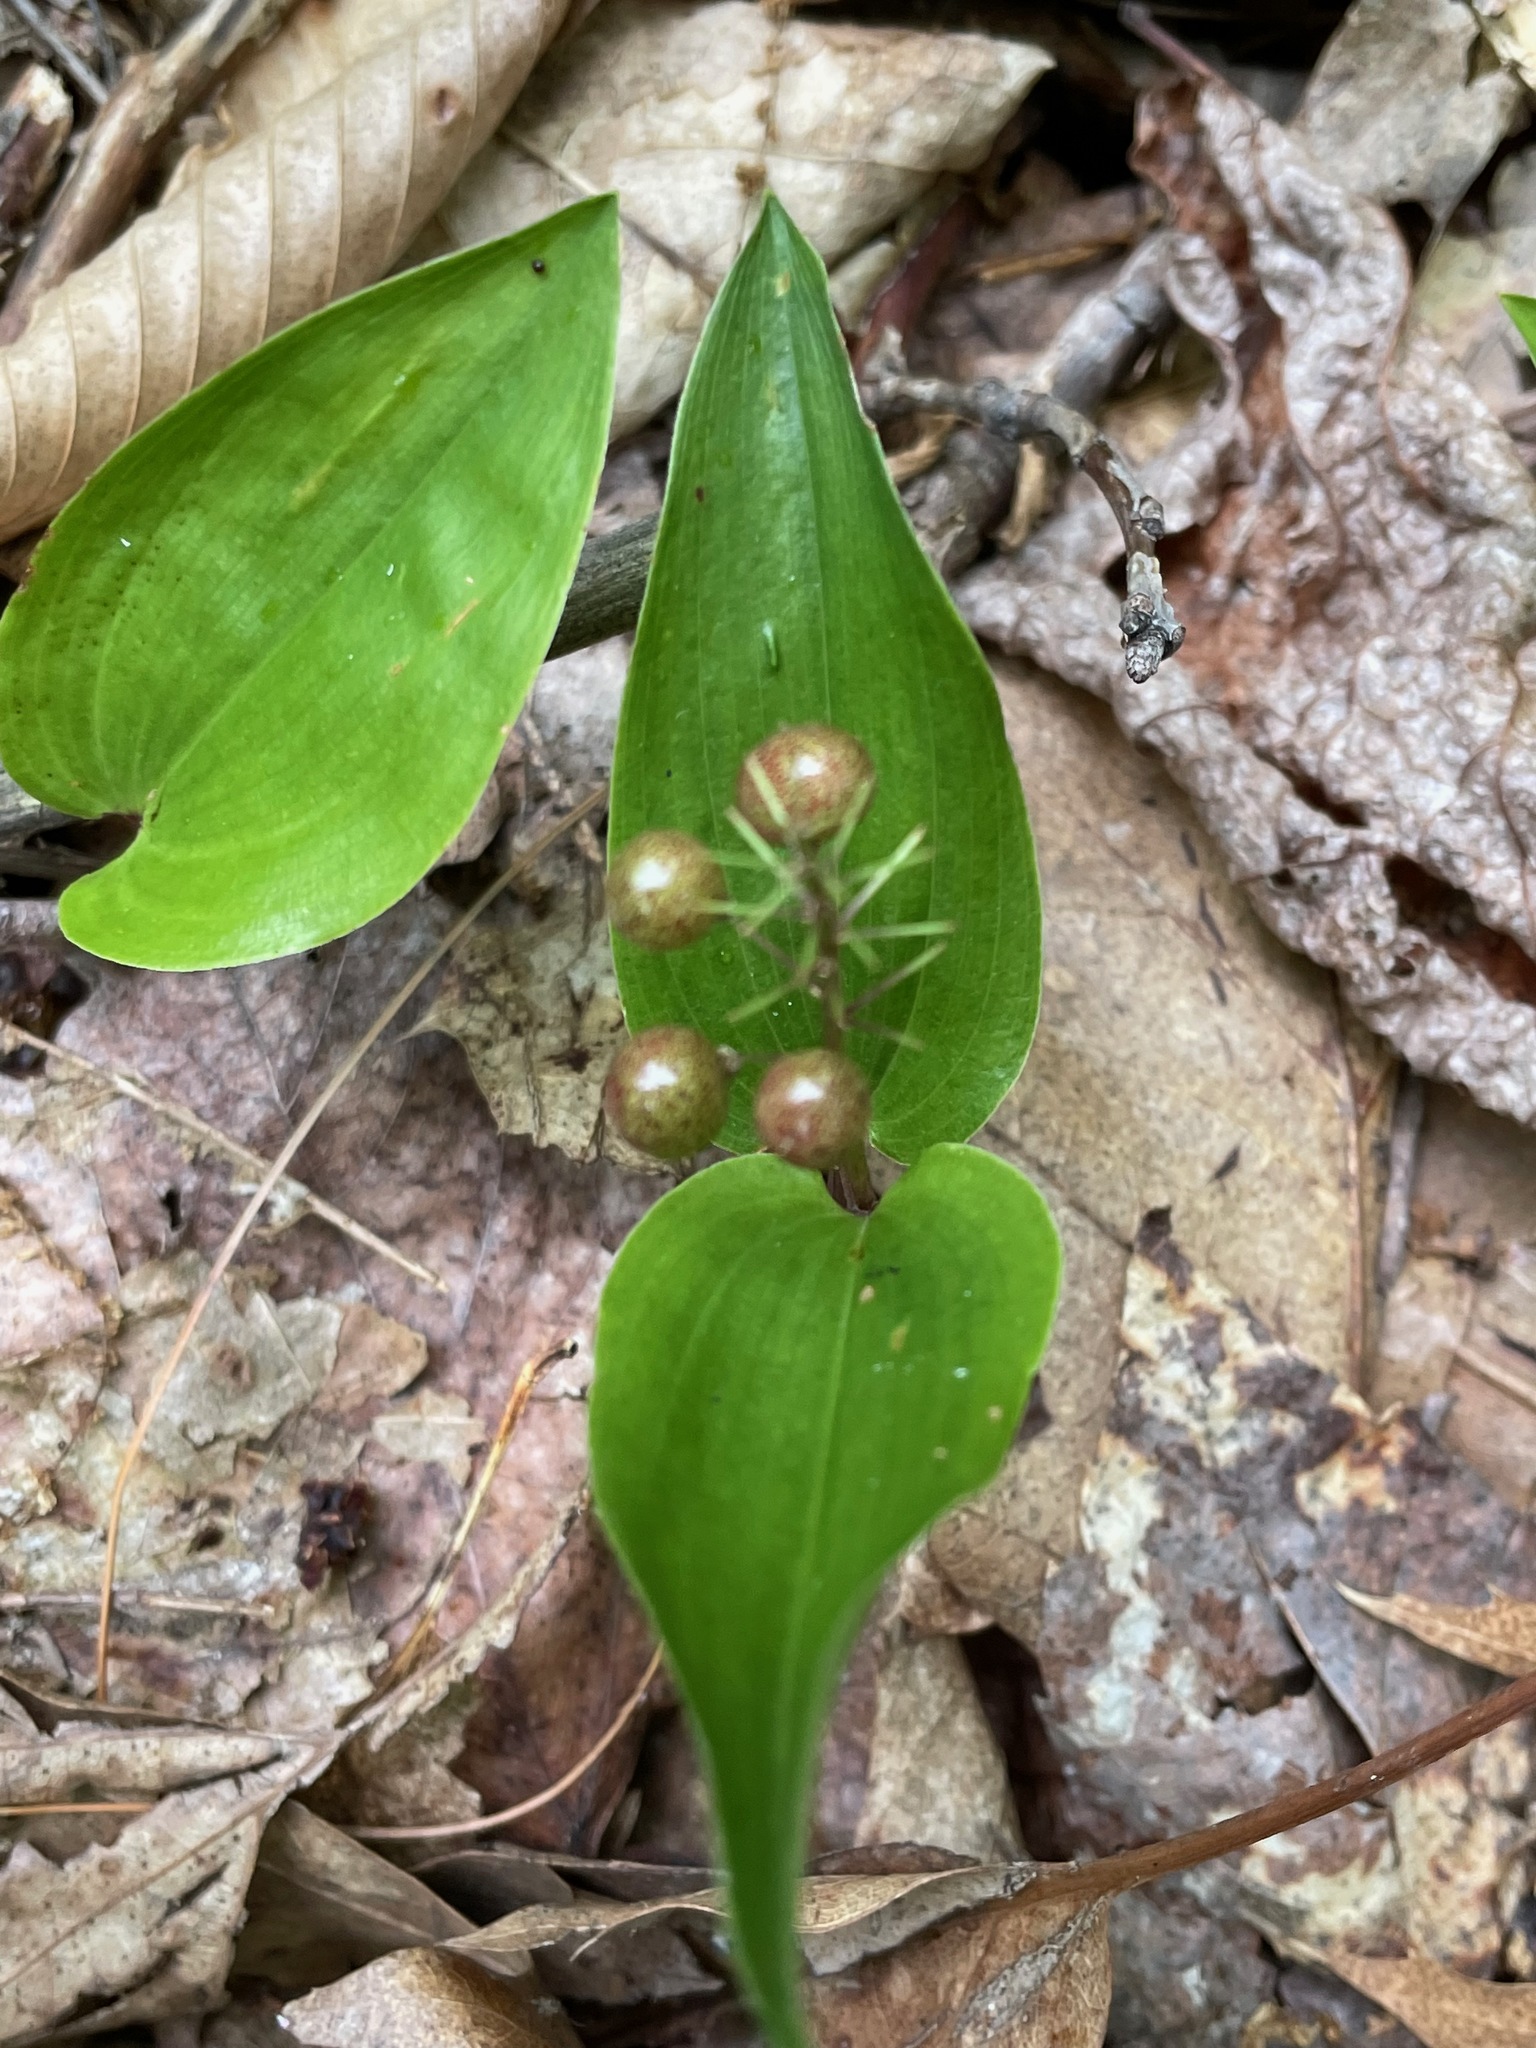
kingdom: Plantae
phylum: Tracheophyta
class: Liliopsida
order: Asparagales
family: Asparagaceae
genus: Maianthemum
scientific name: Maianthemum canadense
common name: False lily-of-the-valley
